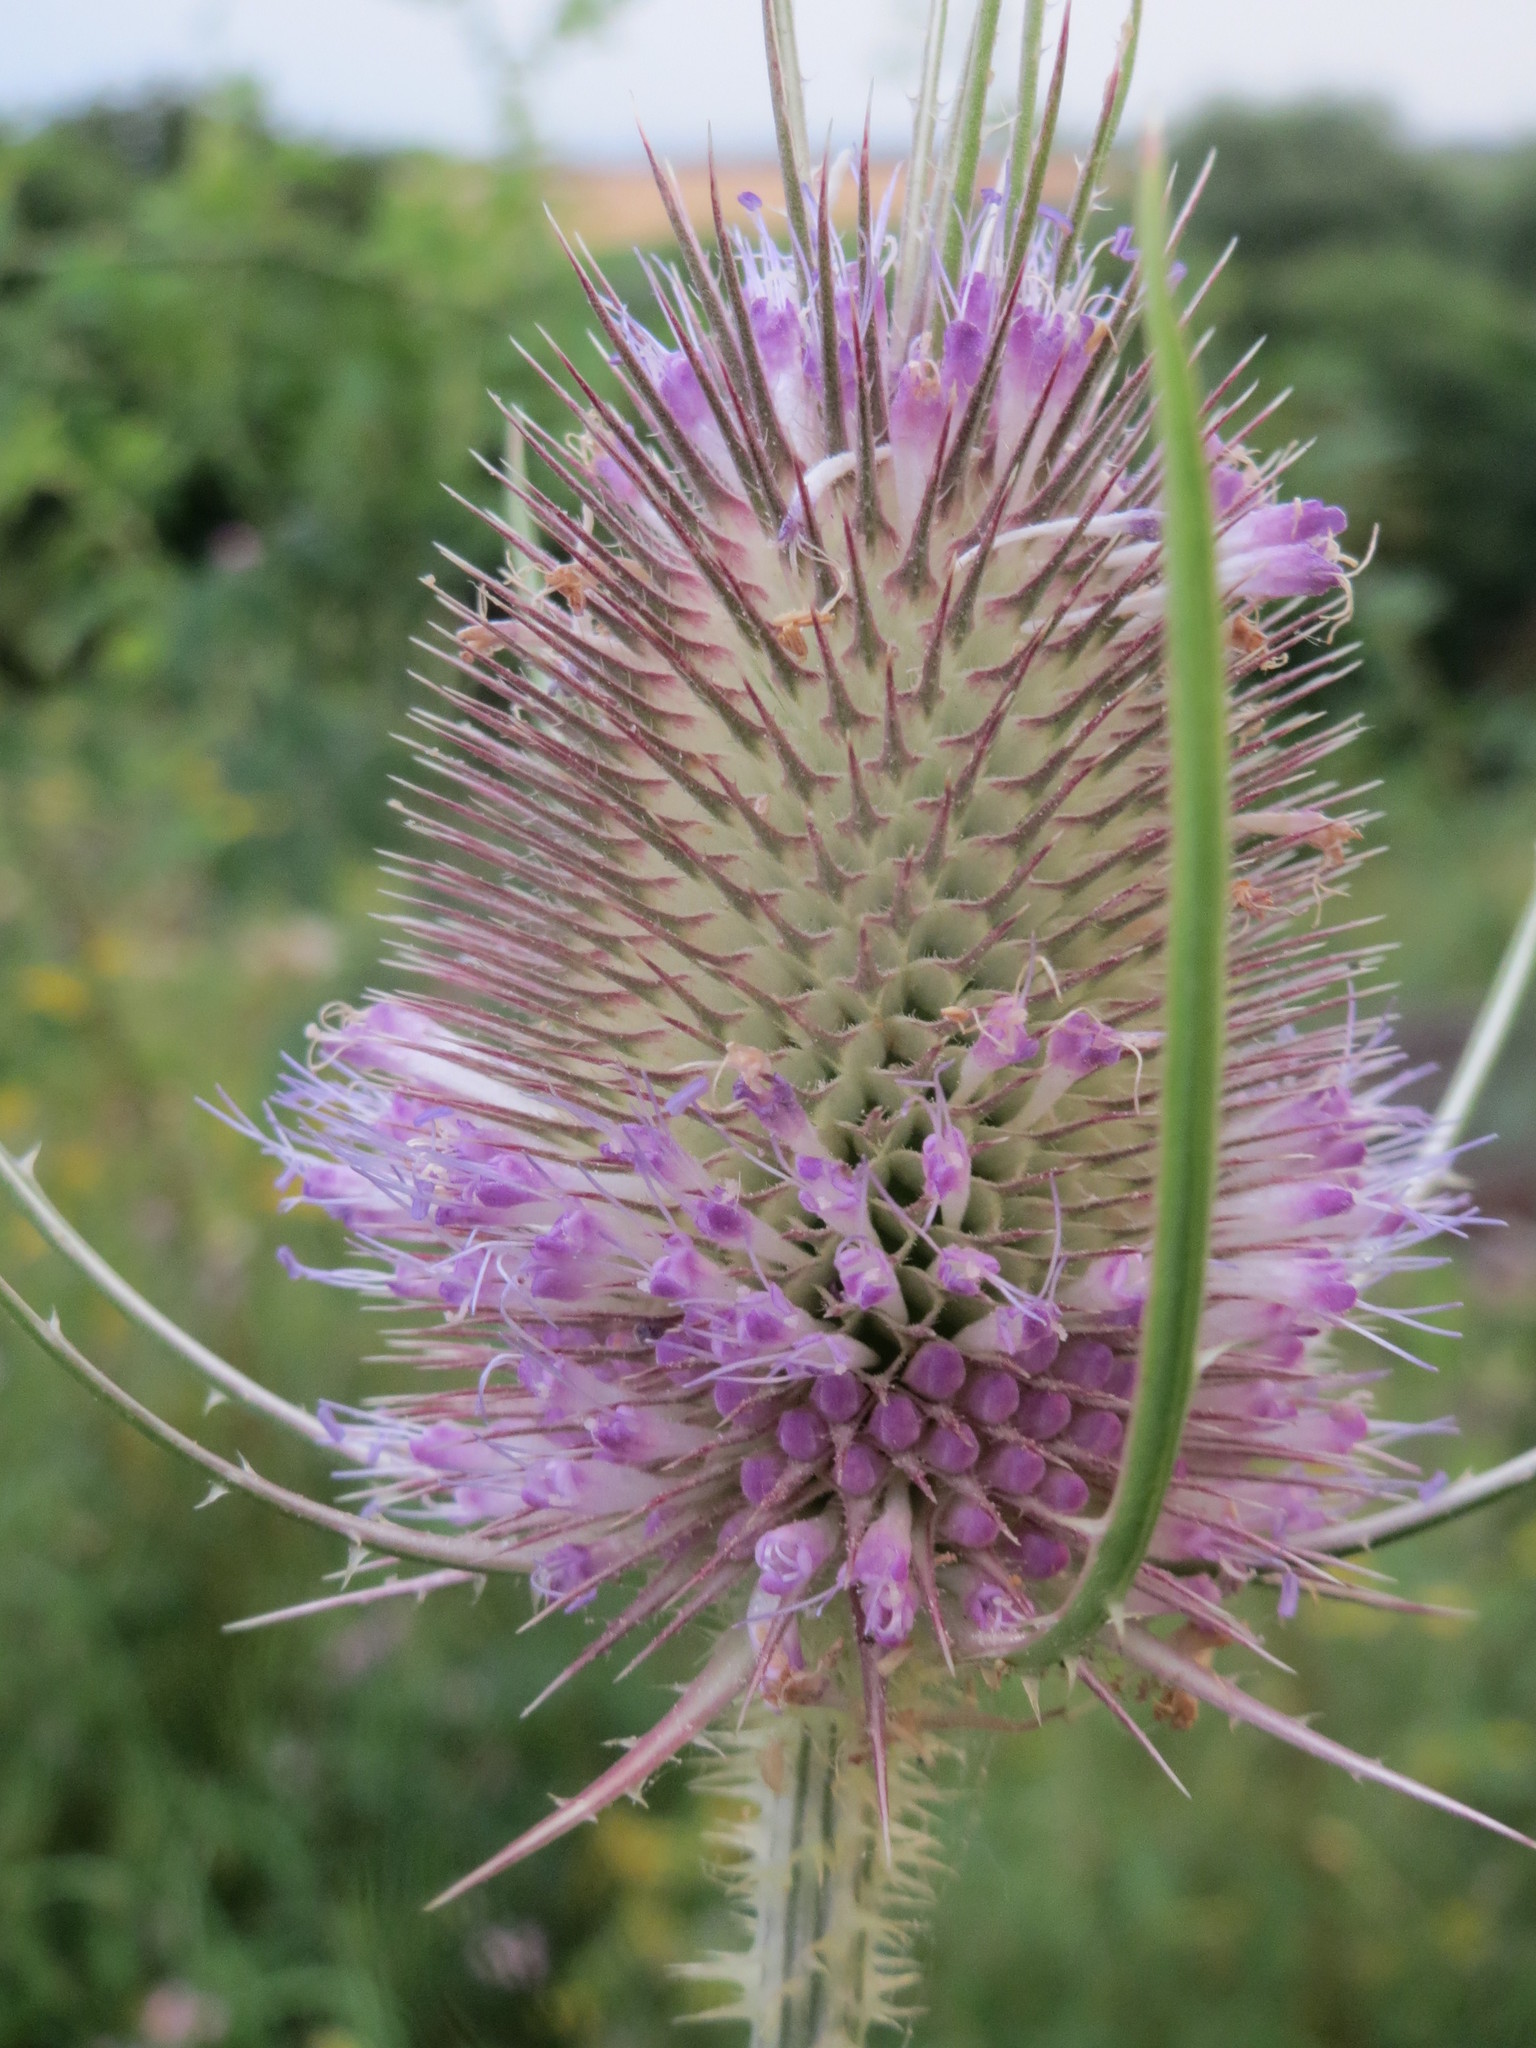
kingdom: Plantae
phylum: Tracheophyta
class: Magnoliopsida
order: Dipsacales
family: Caprifoliaceae
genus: Dipsacus
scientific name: Dipsacus fullonum
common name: Teasel
